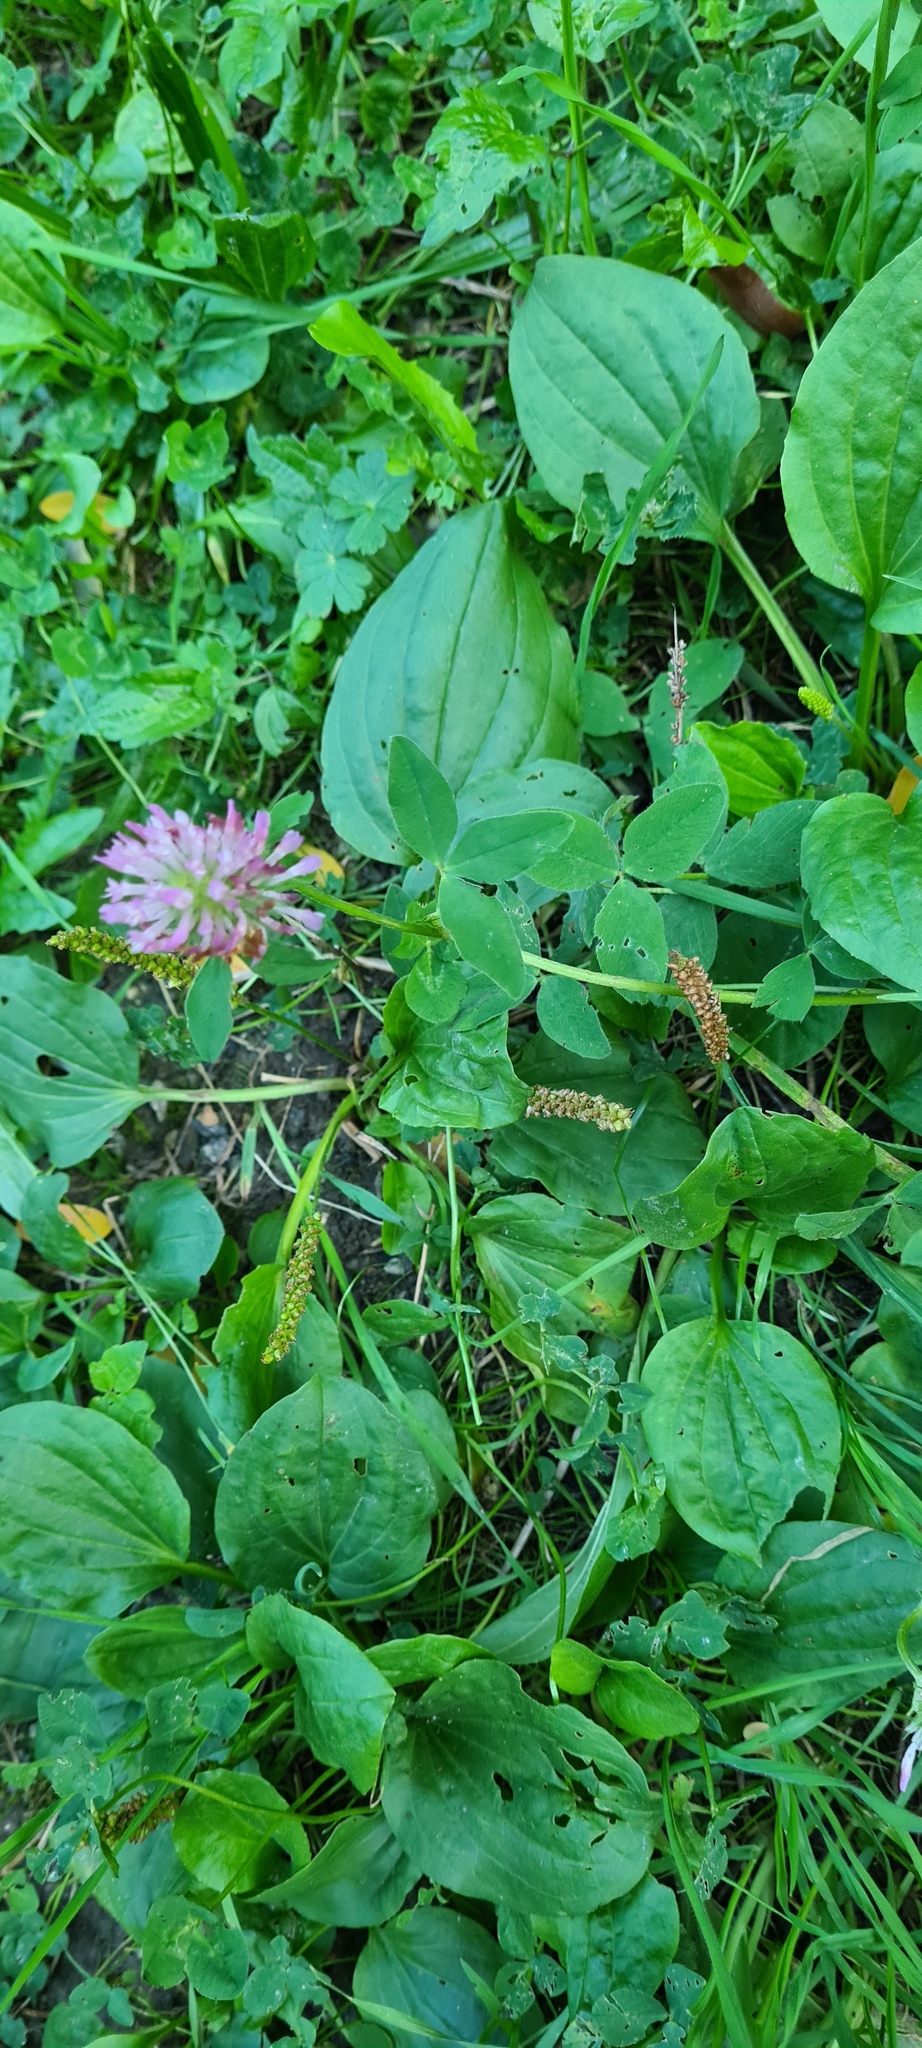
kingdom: Plantae
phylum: Tracheophyta
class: Magnoliopsida
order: Fabales
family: Fabaceae
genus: Trifolium
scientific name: Trifolium pratense
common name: Red clover
